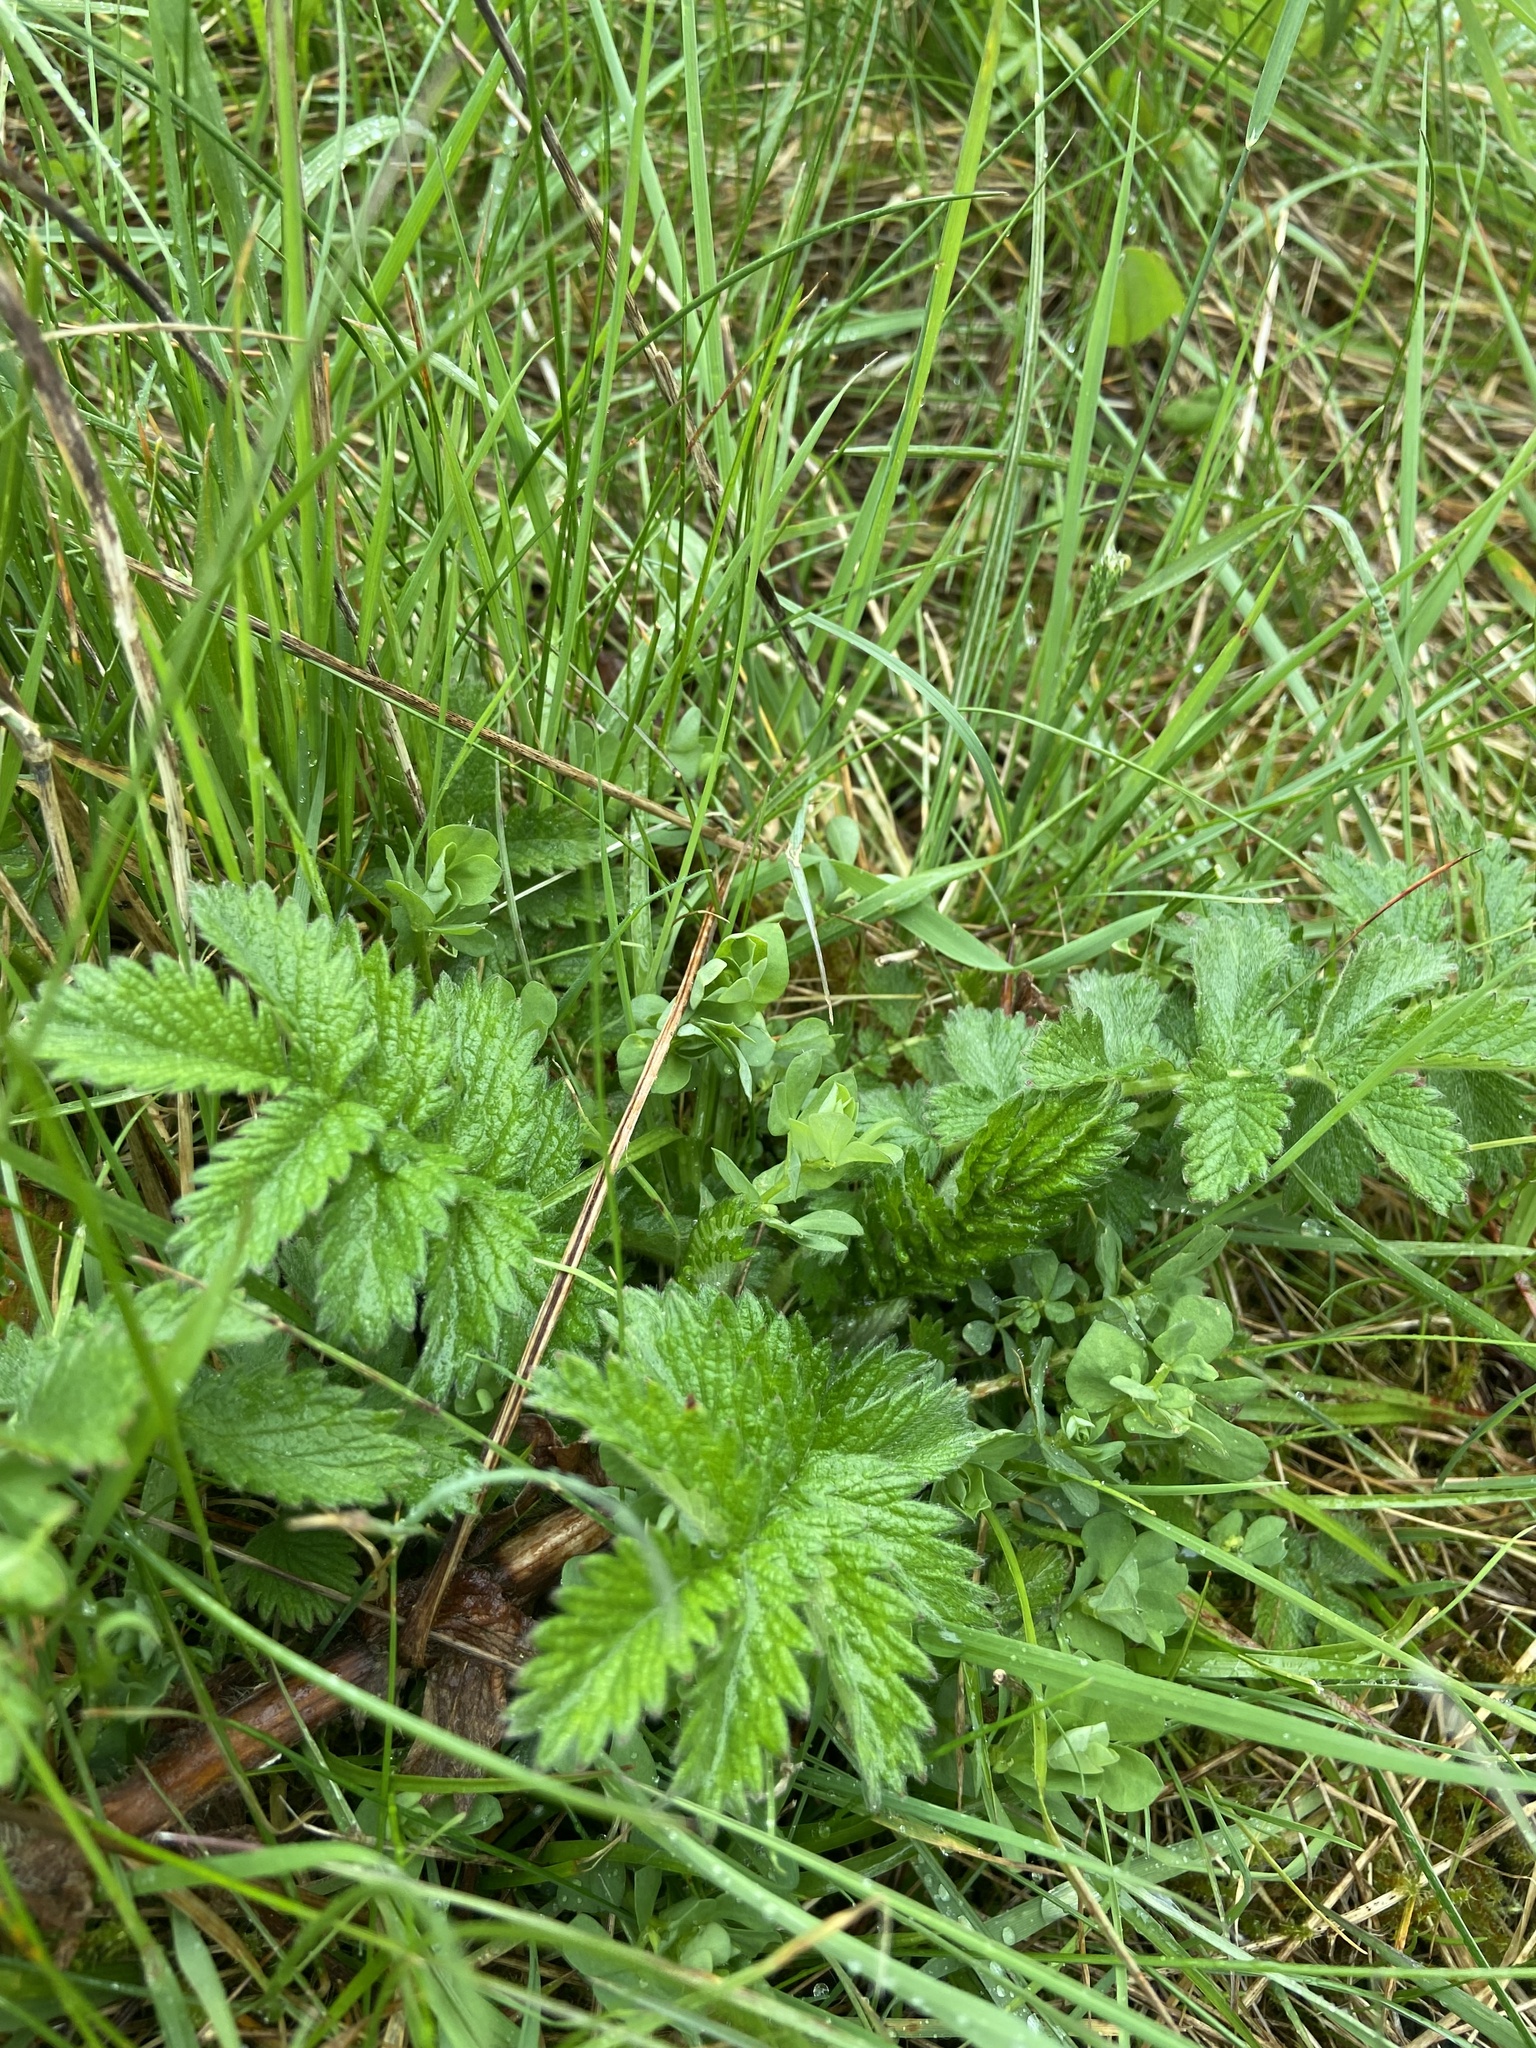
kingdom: Plantae
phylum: Tracheophyta
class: Magnoliopsida
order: Rosales
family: Rosaceae
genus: Agrimonia
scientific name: Agrimonia eupatoria
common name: Agrimony
